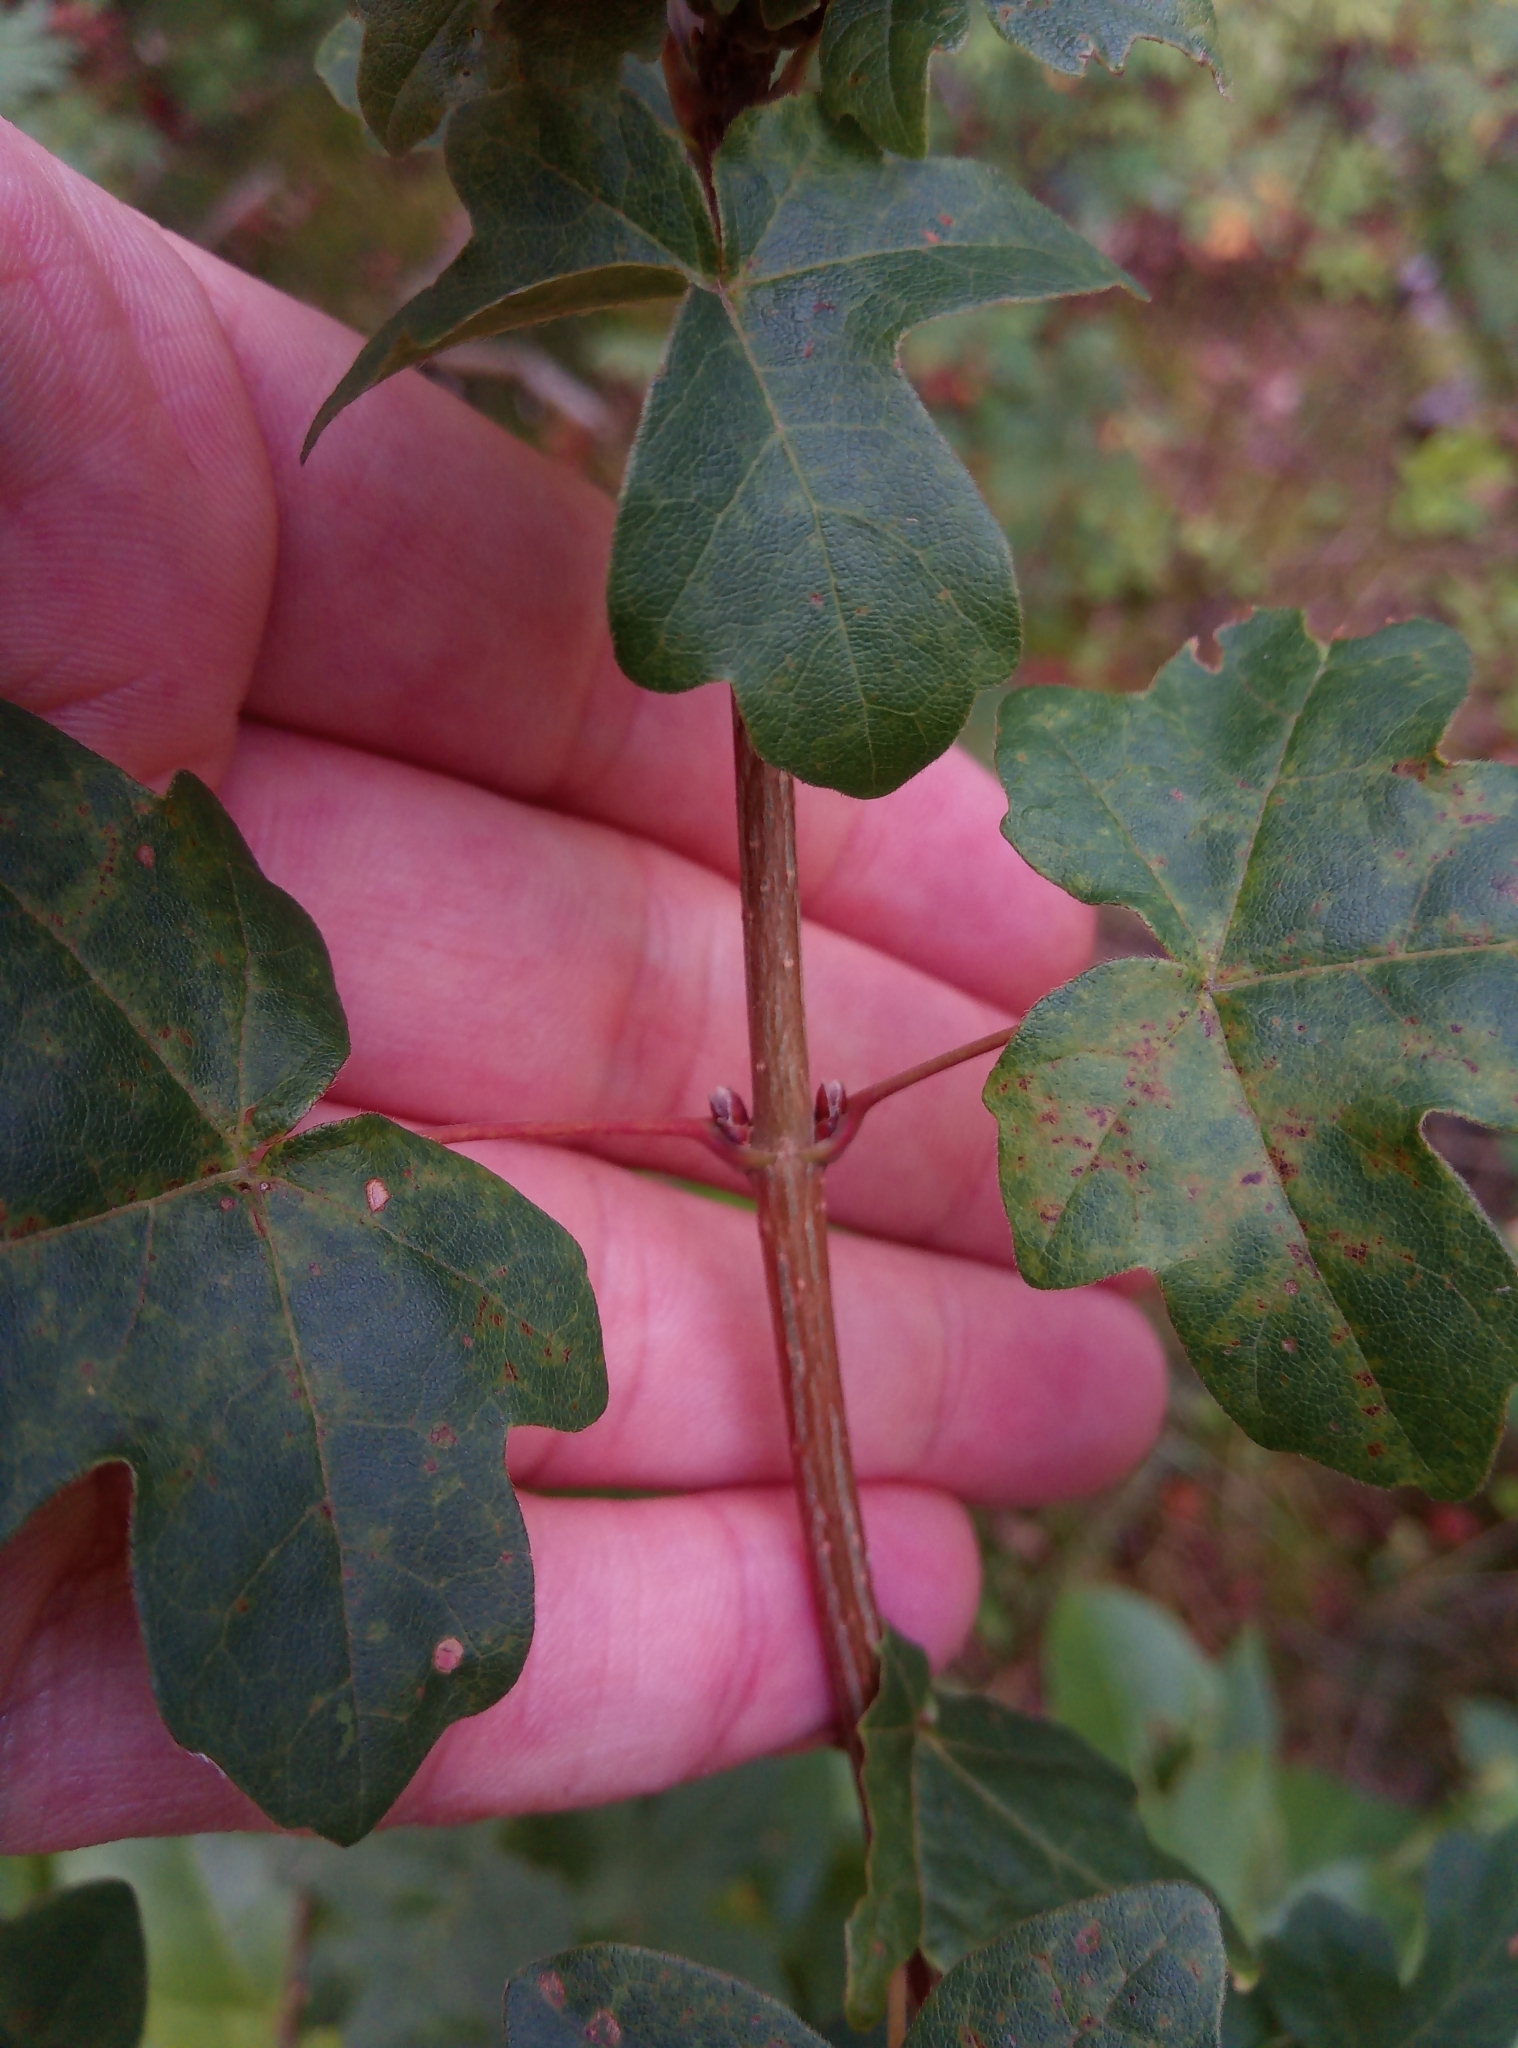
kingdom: Plantae
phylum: Tracheophyta
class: Magnoliopsida
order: Sapindales
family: Sapindaceae
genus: Acer
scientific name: Acer campestre
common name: Field maple
